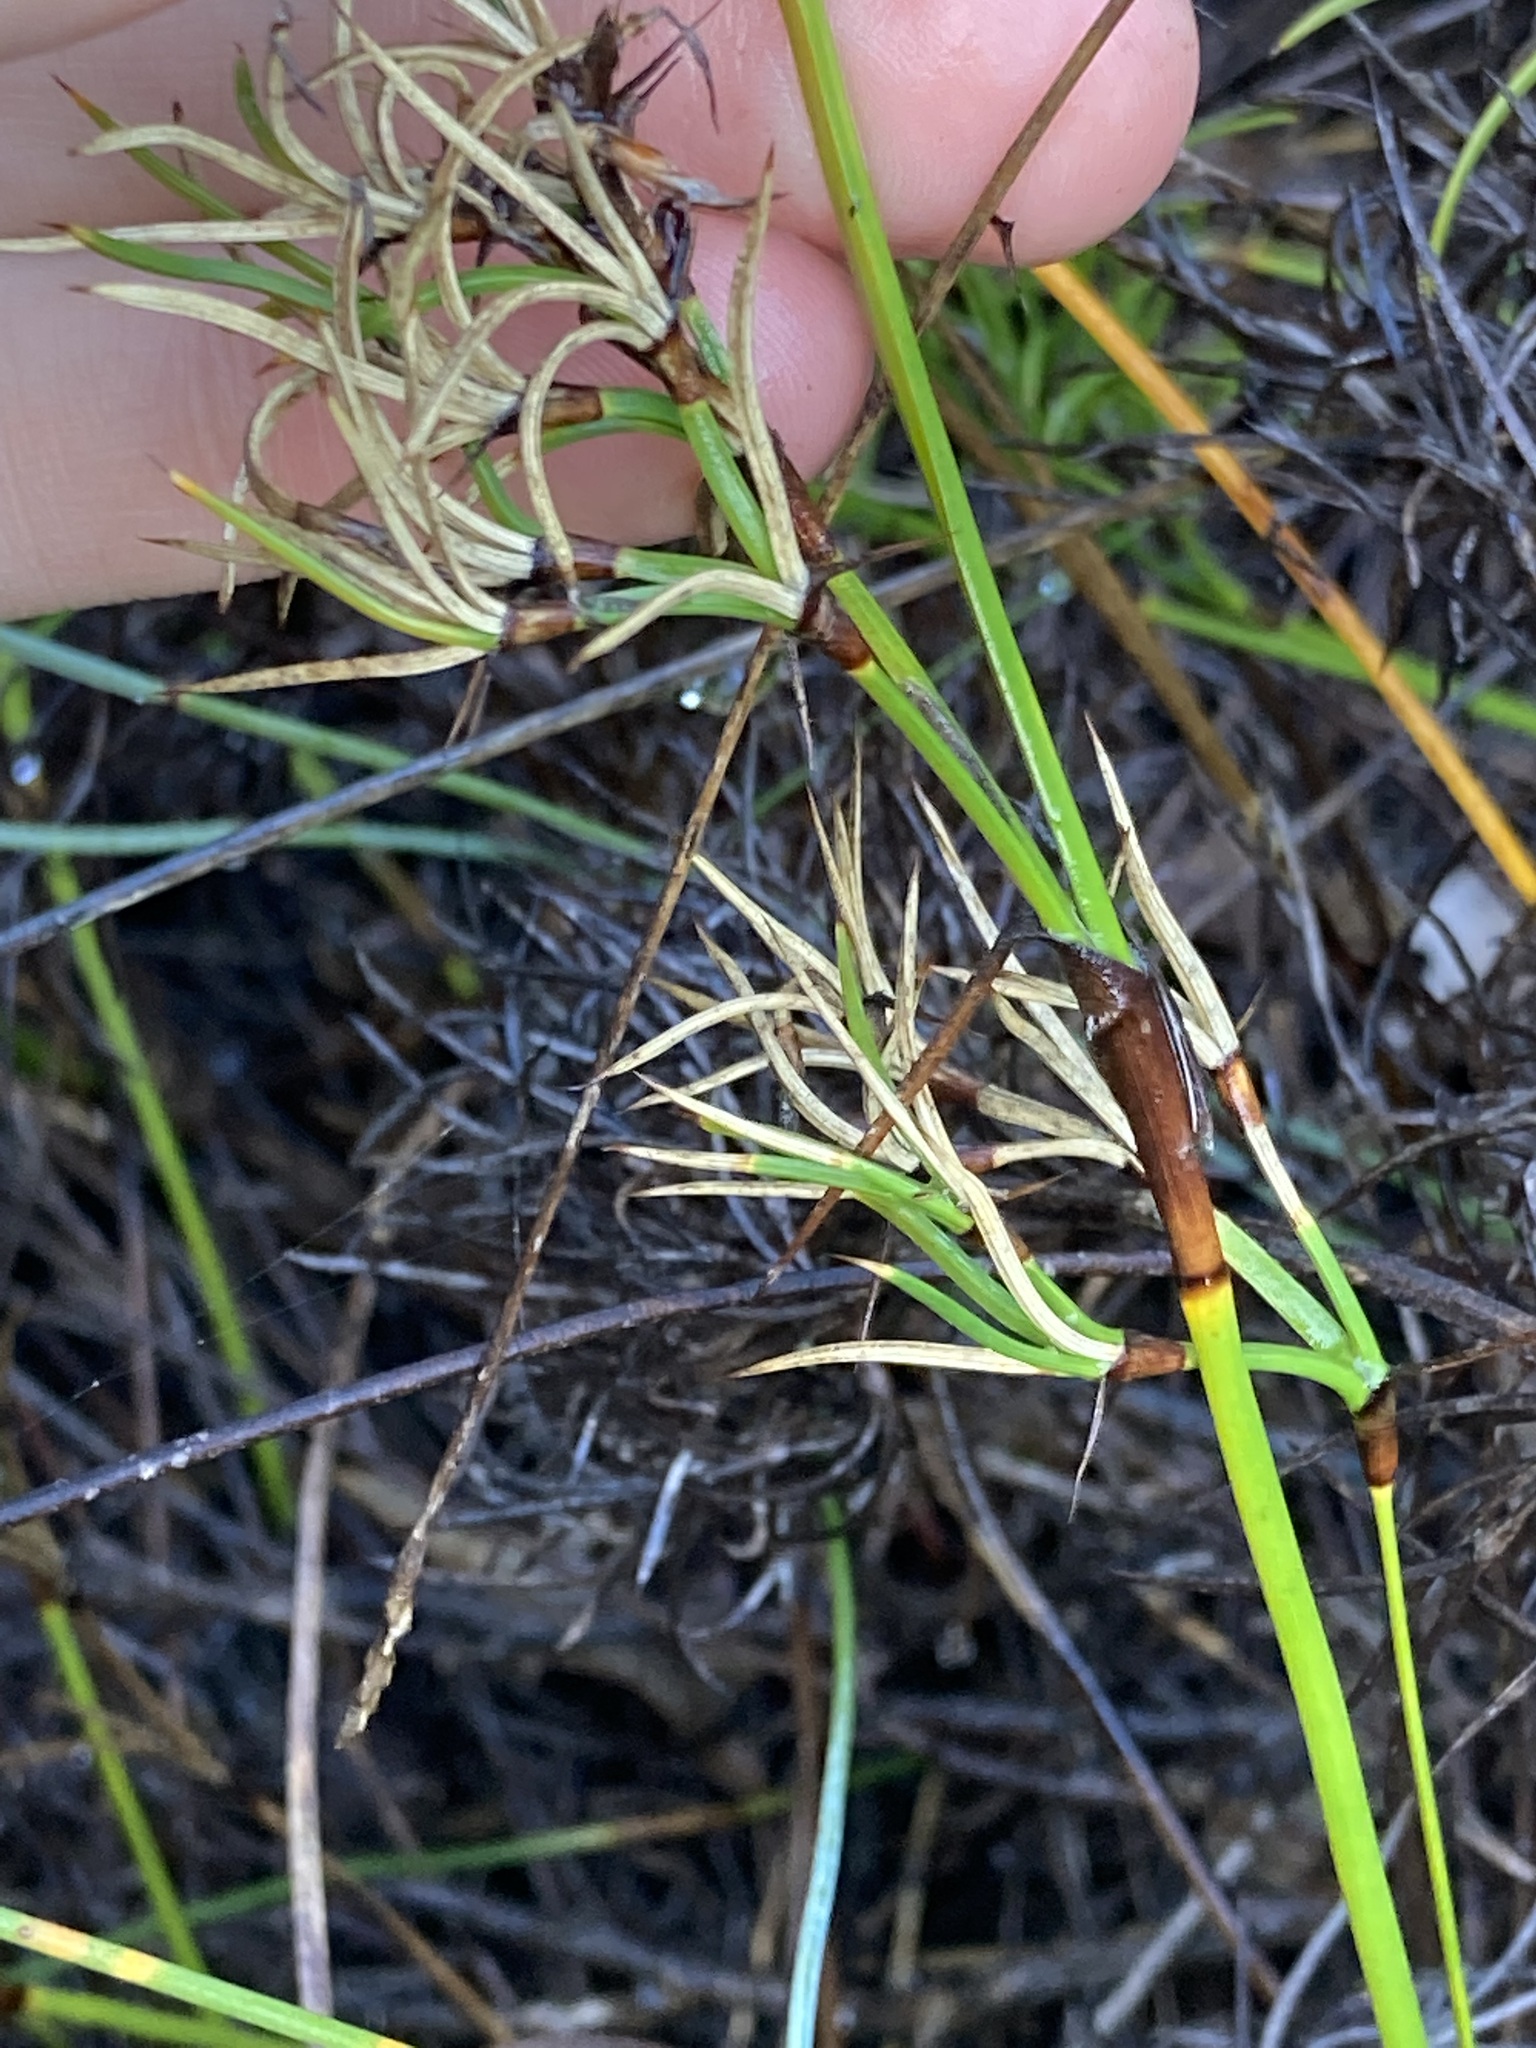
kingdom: Plantae
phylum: Tracheophyta
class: Liliopsida
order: Poales
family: Cyperaceae
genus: Caustis
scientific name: Caustis dioica
